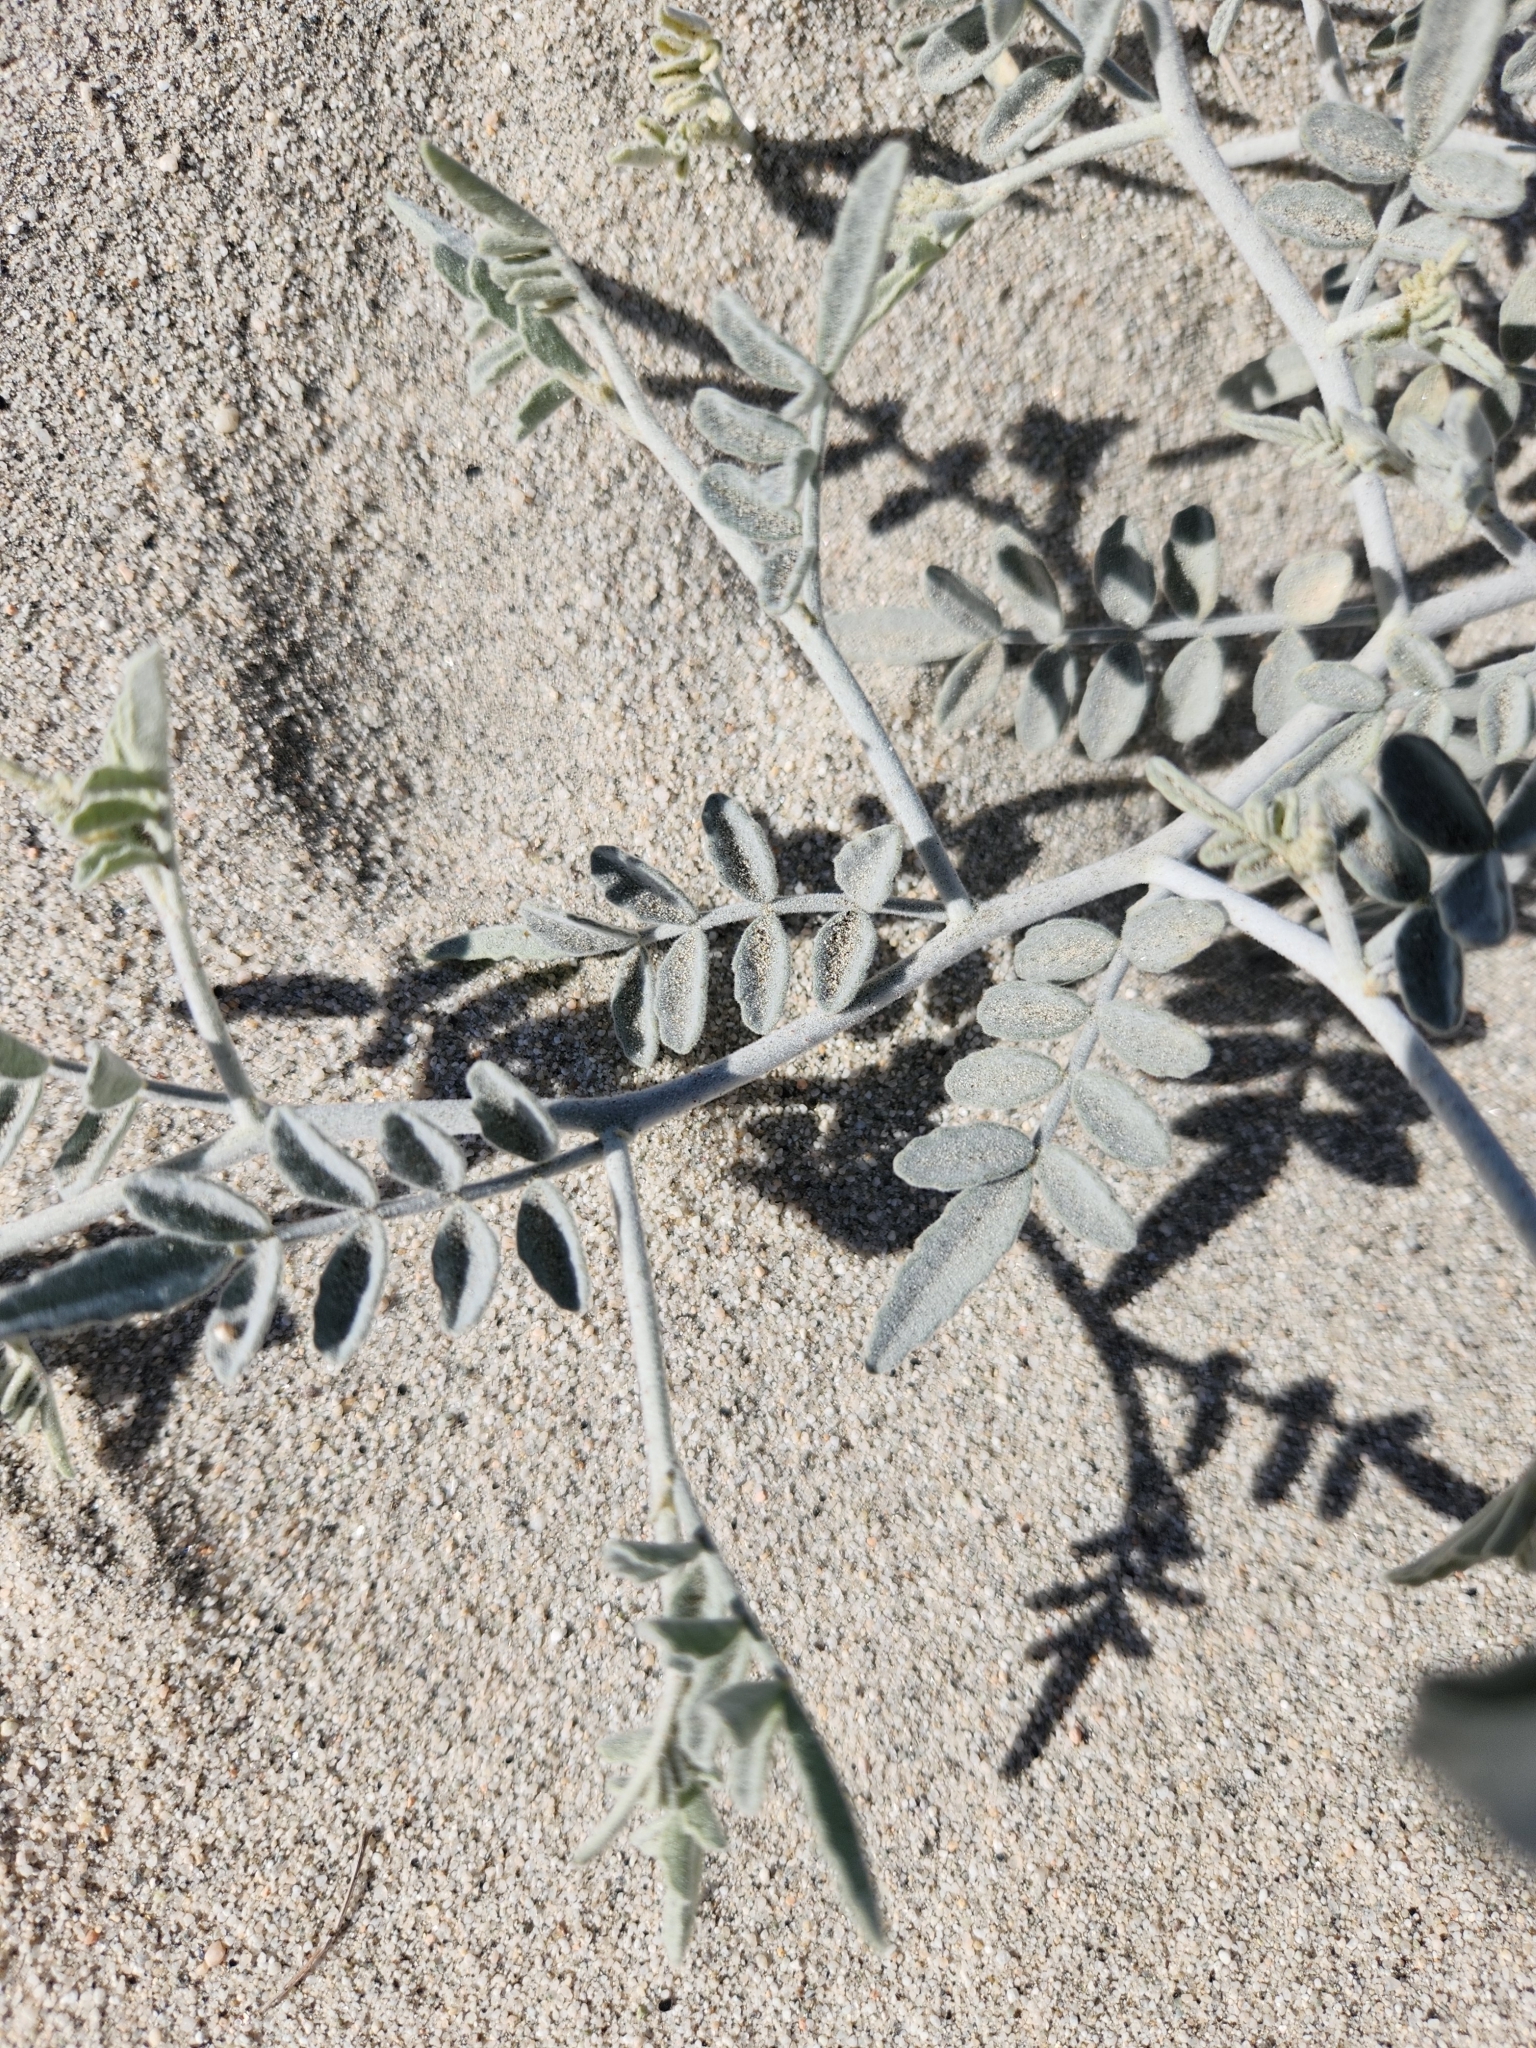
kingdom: Plantae
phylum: Tracheophyta
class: Magnoliopsida
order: Fabales
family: Fabaceae
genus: Psorothamnus
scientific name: Psorothamnus emoryi
